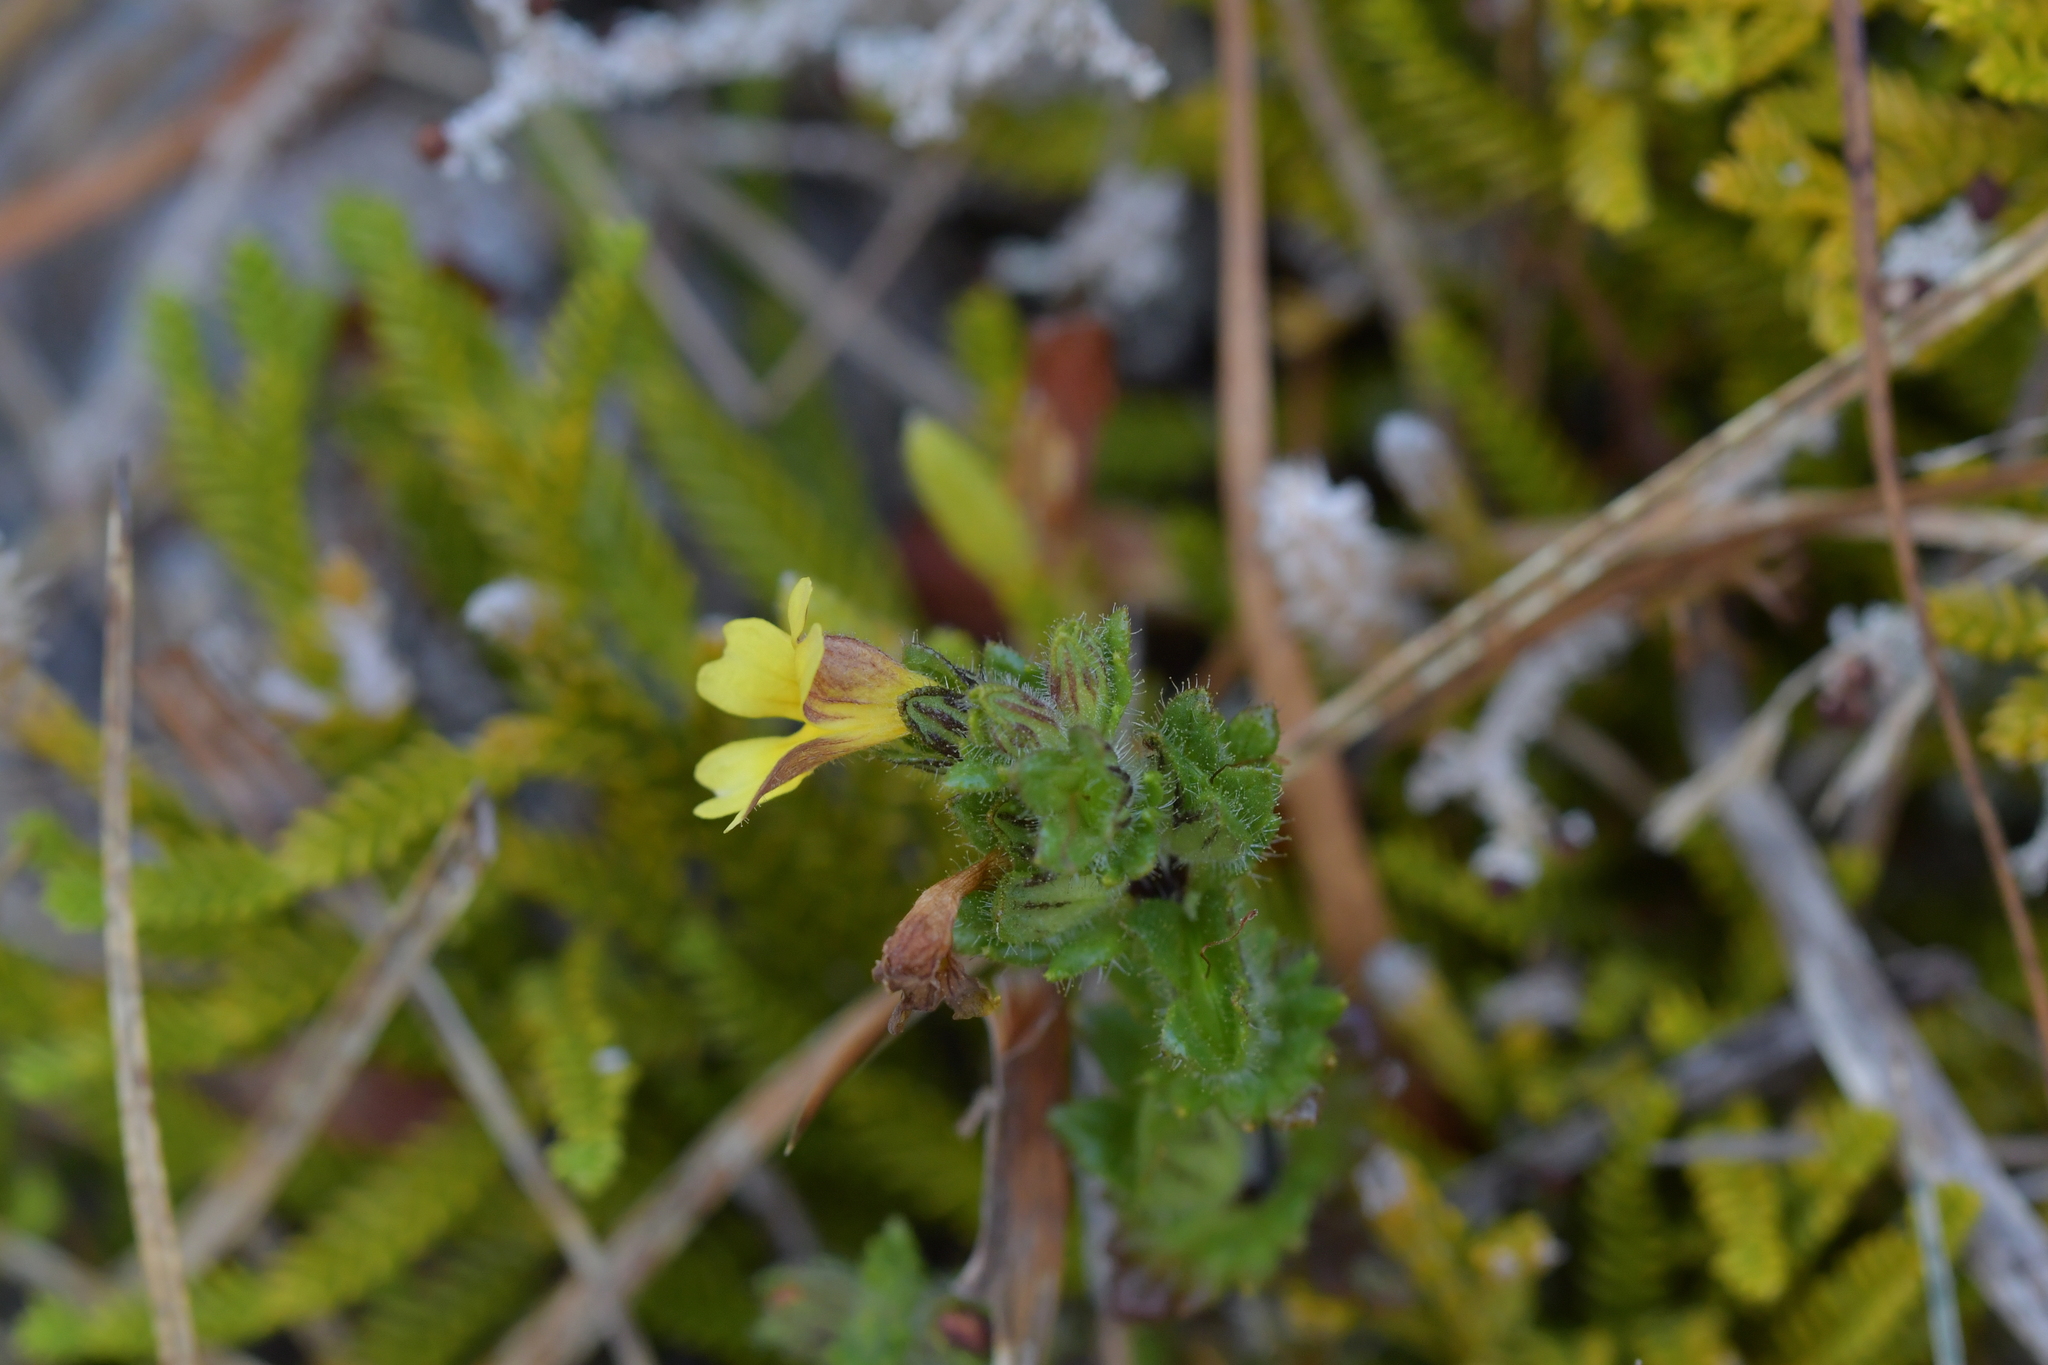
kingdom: Plantae
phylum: Tracheophyta
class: Magnoliopsida
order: Lamiales
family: Orobanchaceae
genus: Euphrasia
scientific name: Euphrasia cockayneana
